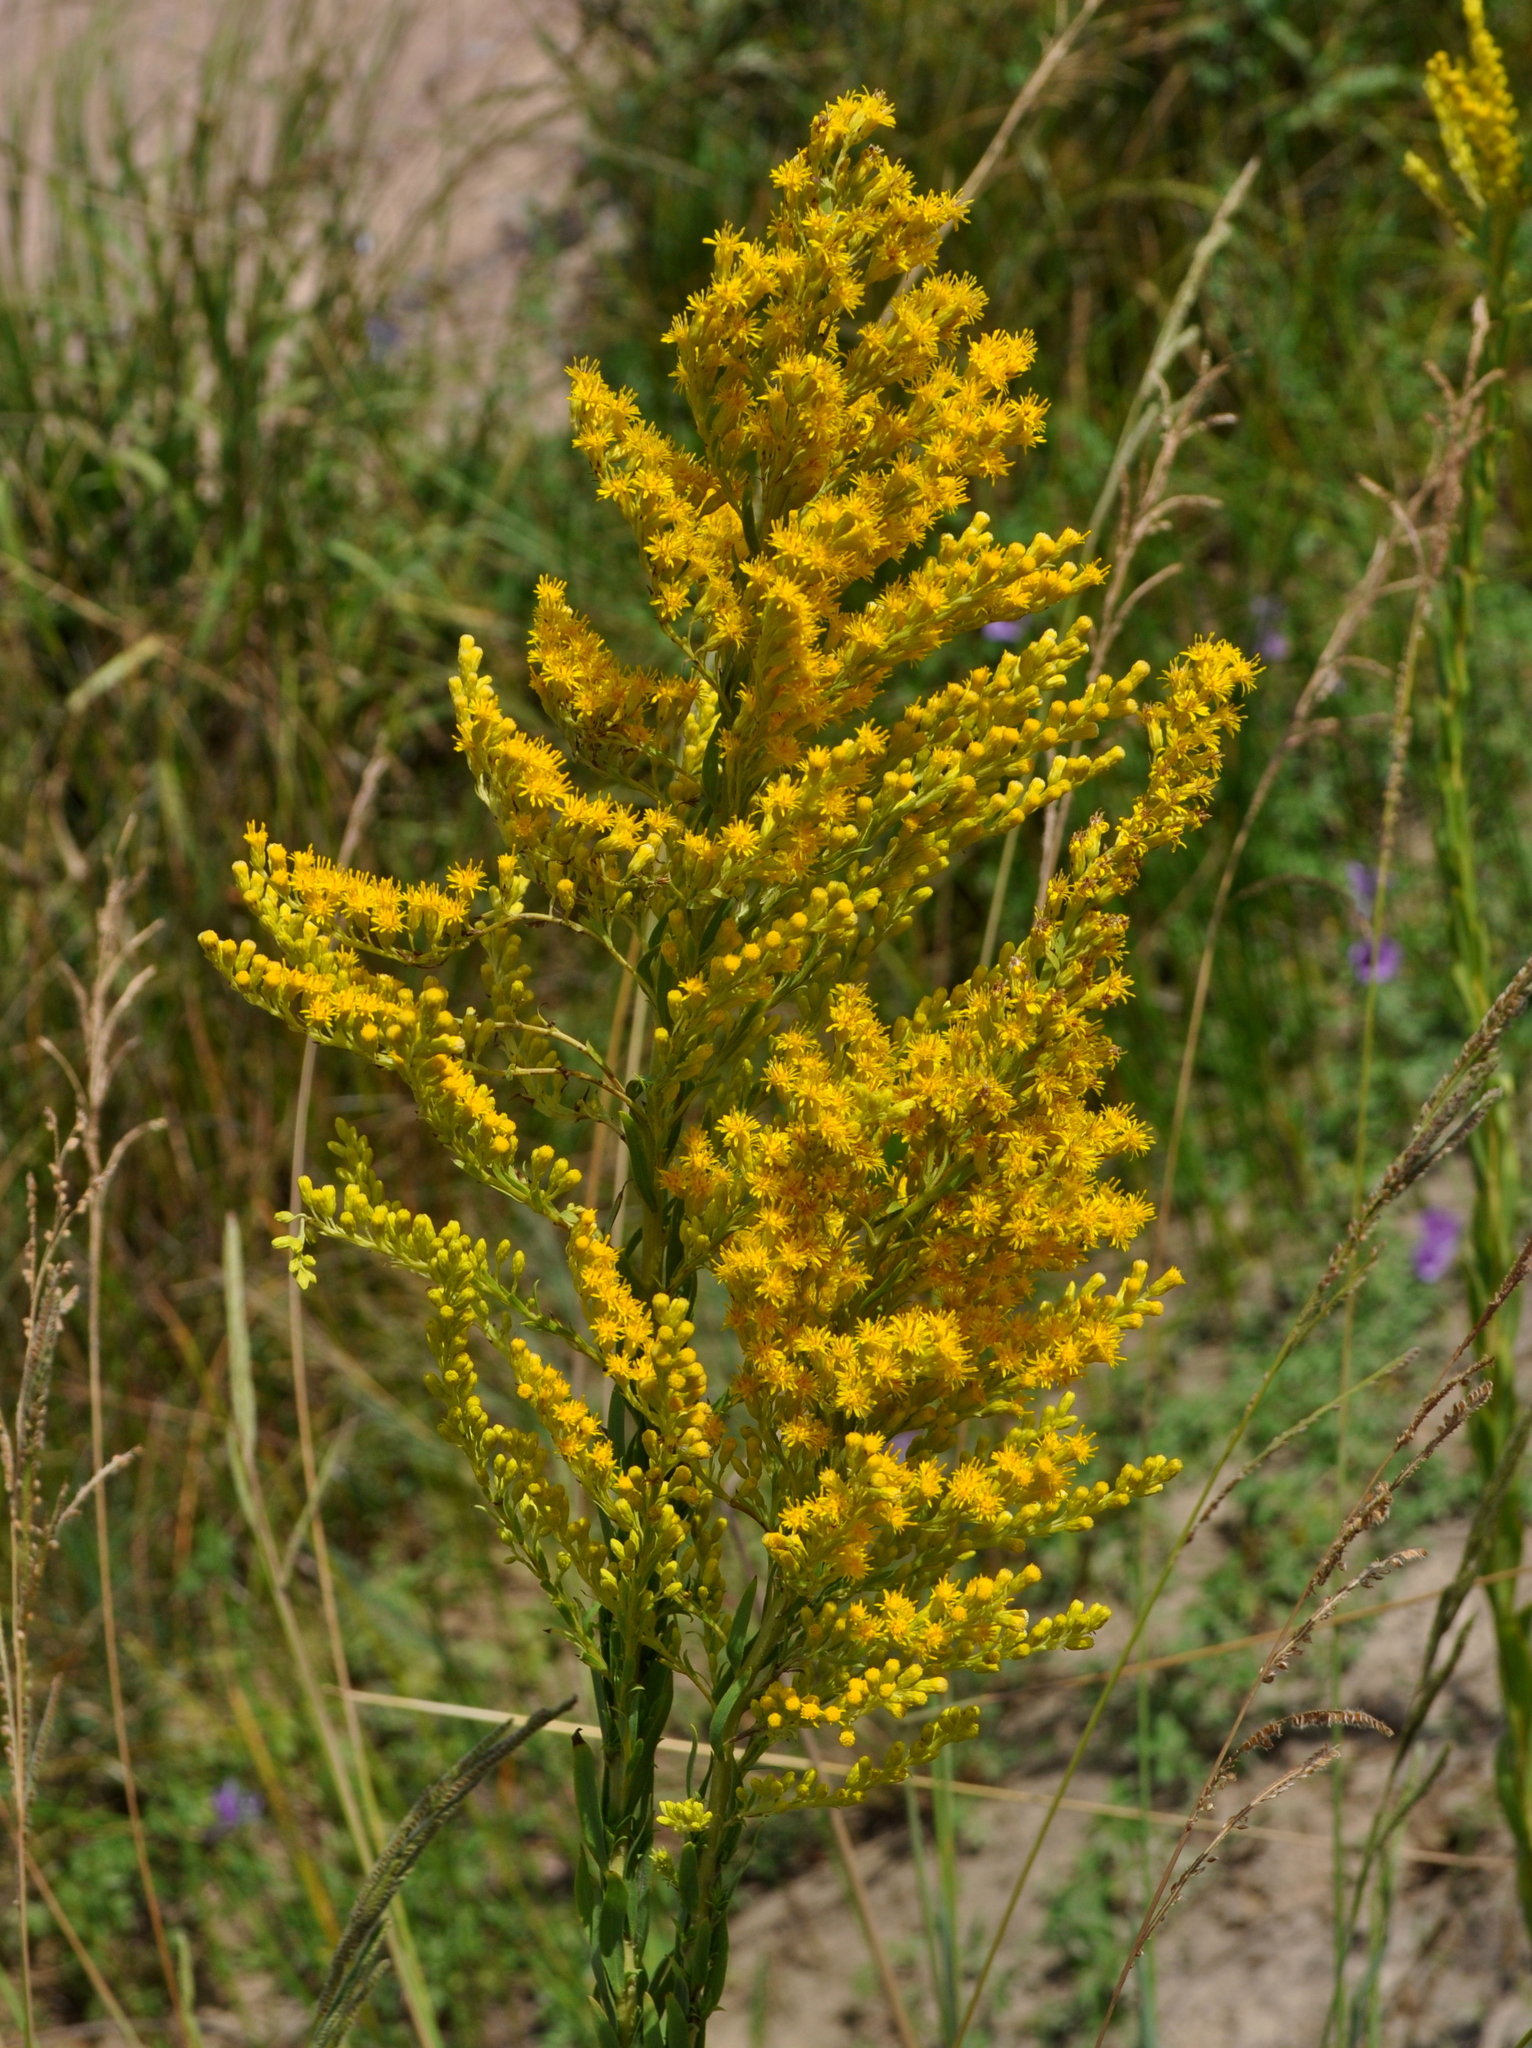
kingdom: Plantae
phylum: Tracheophyta
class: Magnoliopsida
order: Asterales
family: Asteraceae
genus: Solidago
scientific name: Solidago chilensis
